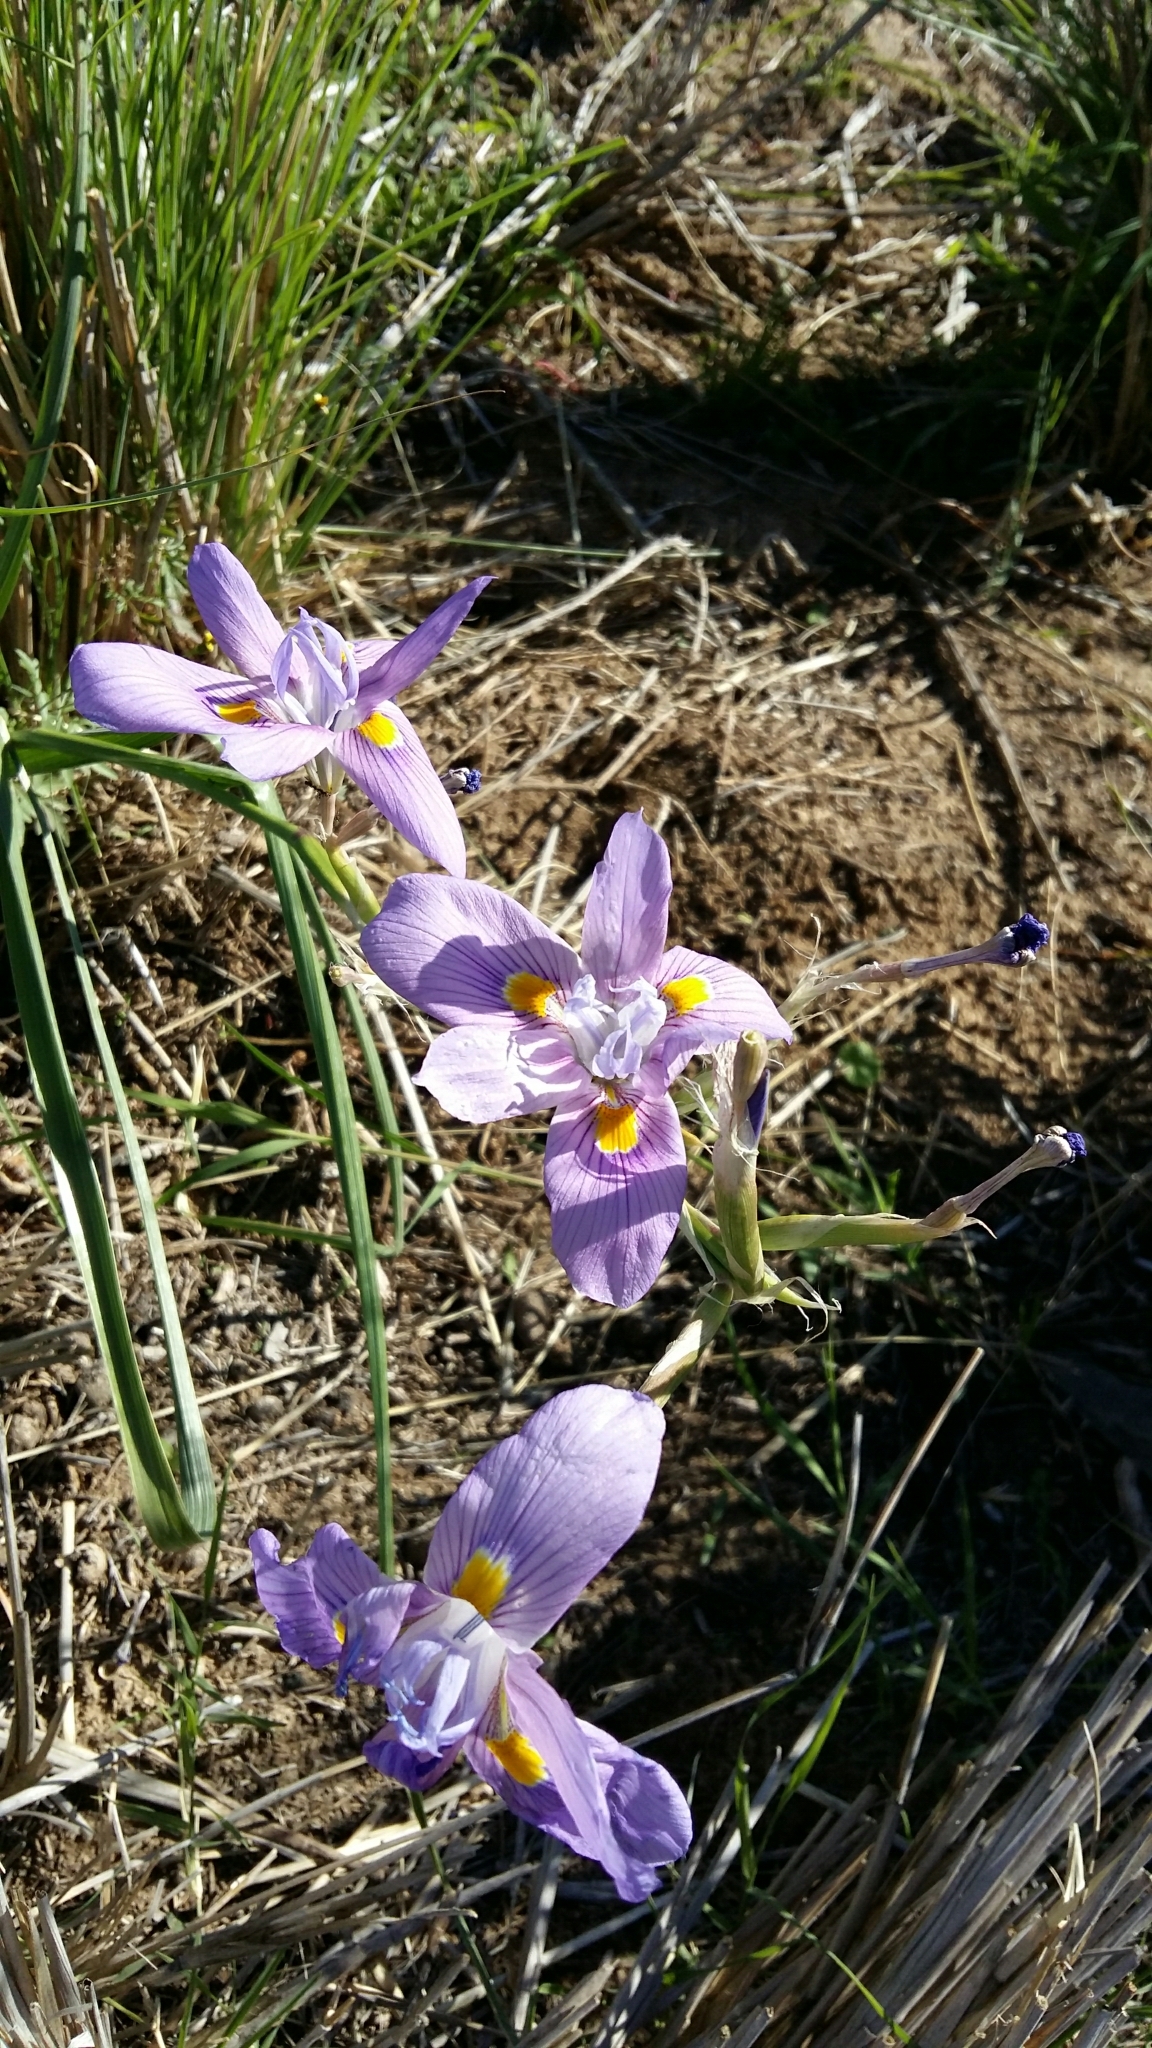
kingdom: Plantae
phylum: Tracheophyta
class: Liliopsida
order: Asparagales
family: Iridaceae
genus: Moraea
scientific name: Moraea polystachya
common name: Blue-tulip
